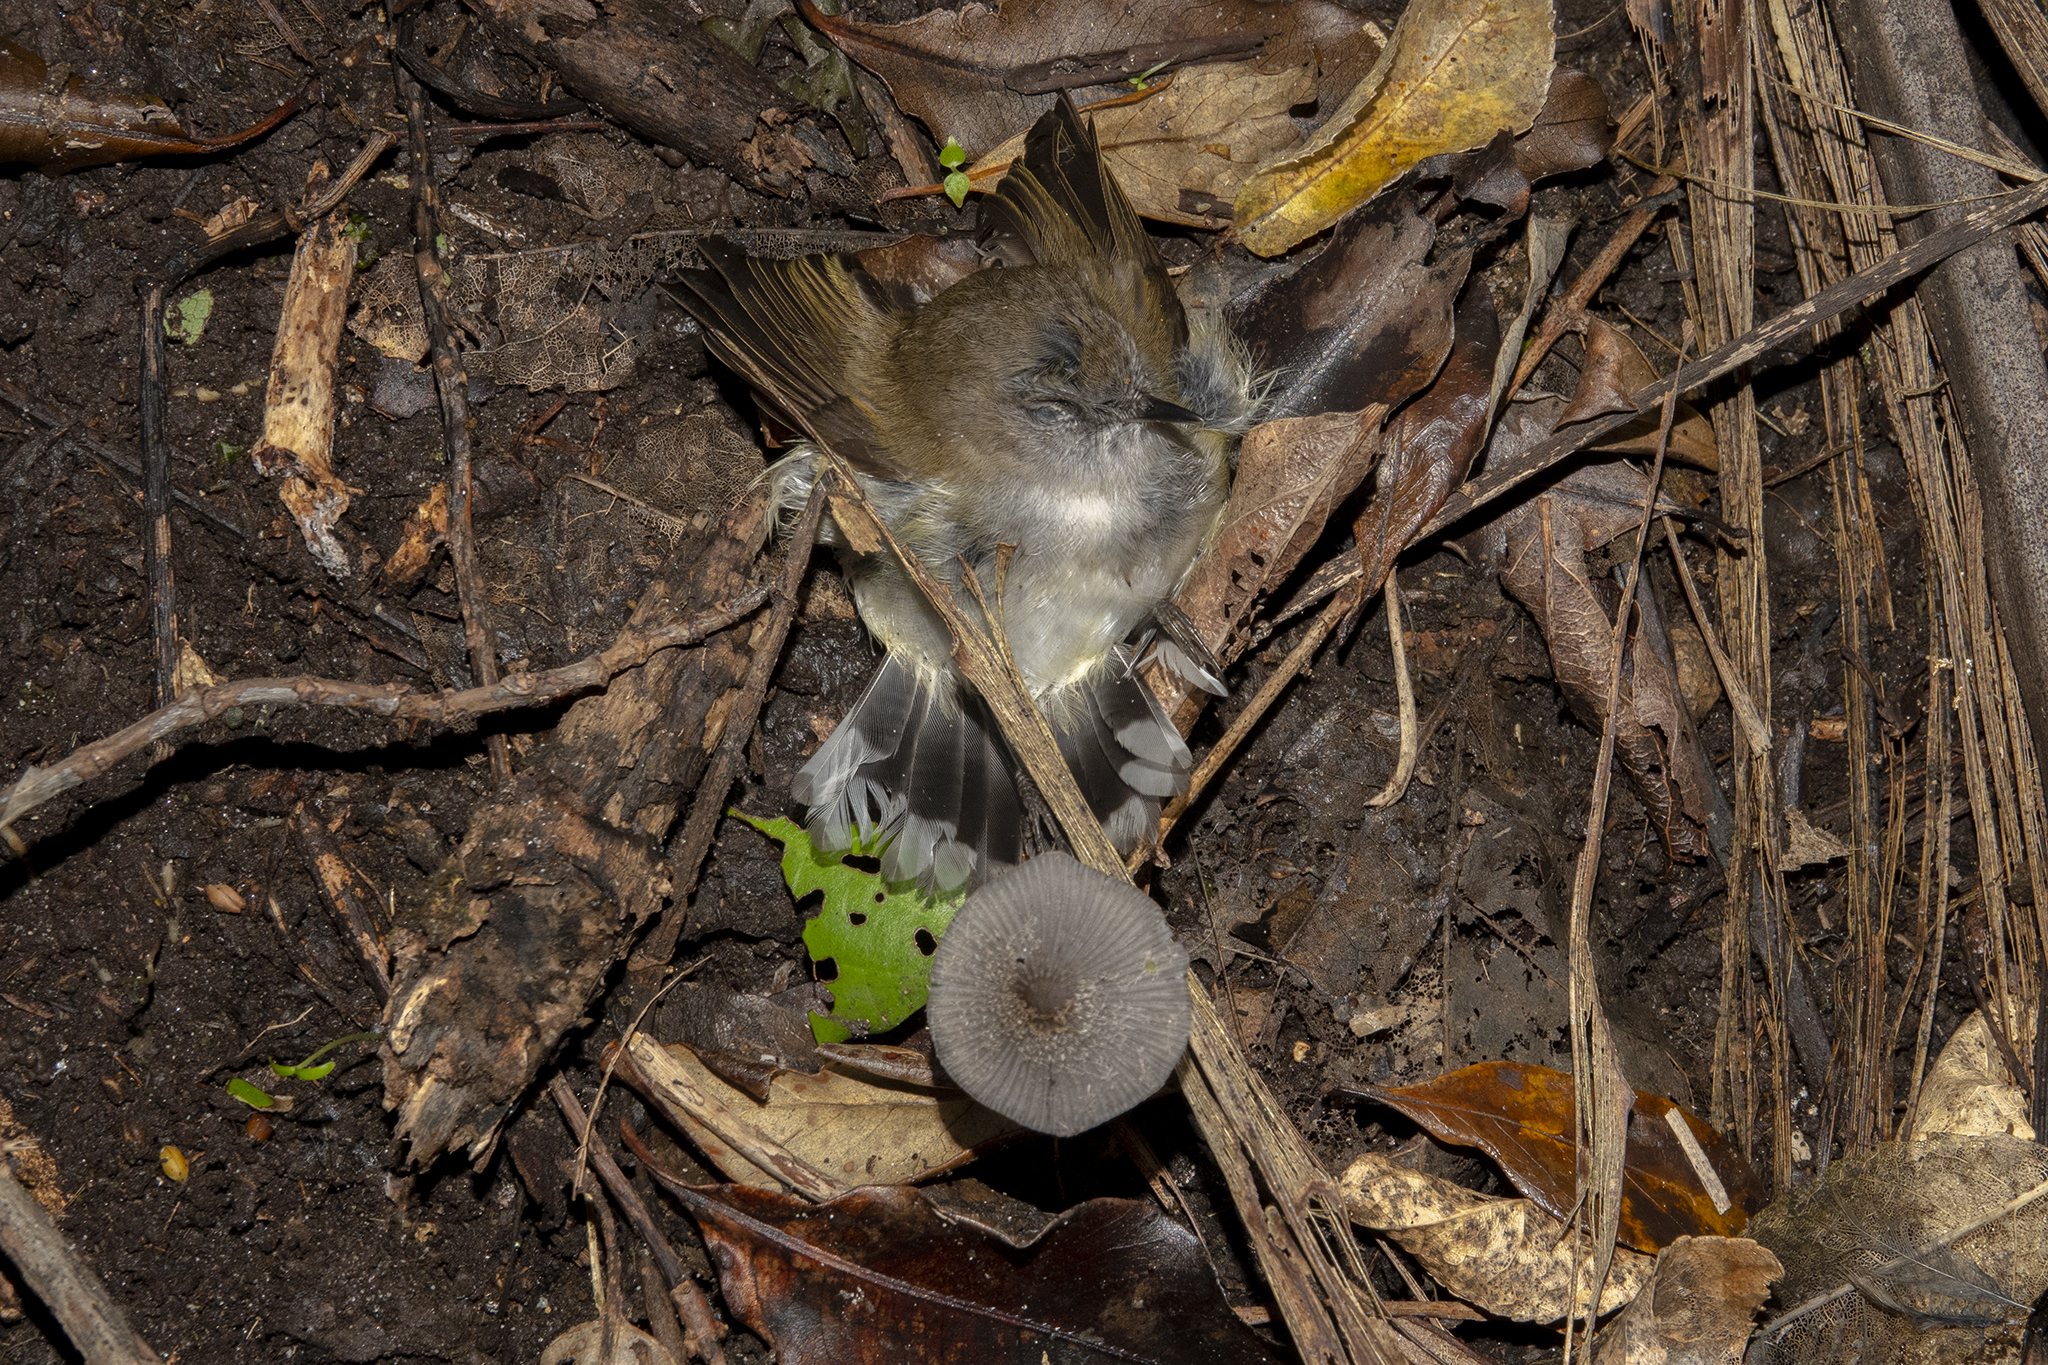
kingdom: Animalia
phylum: Chordata
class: Aves
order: Passeriformes
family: Acanthizidae
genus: Gerygone
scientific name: Gerygone igata
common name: Grey gerygone
